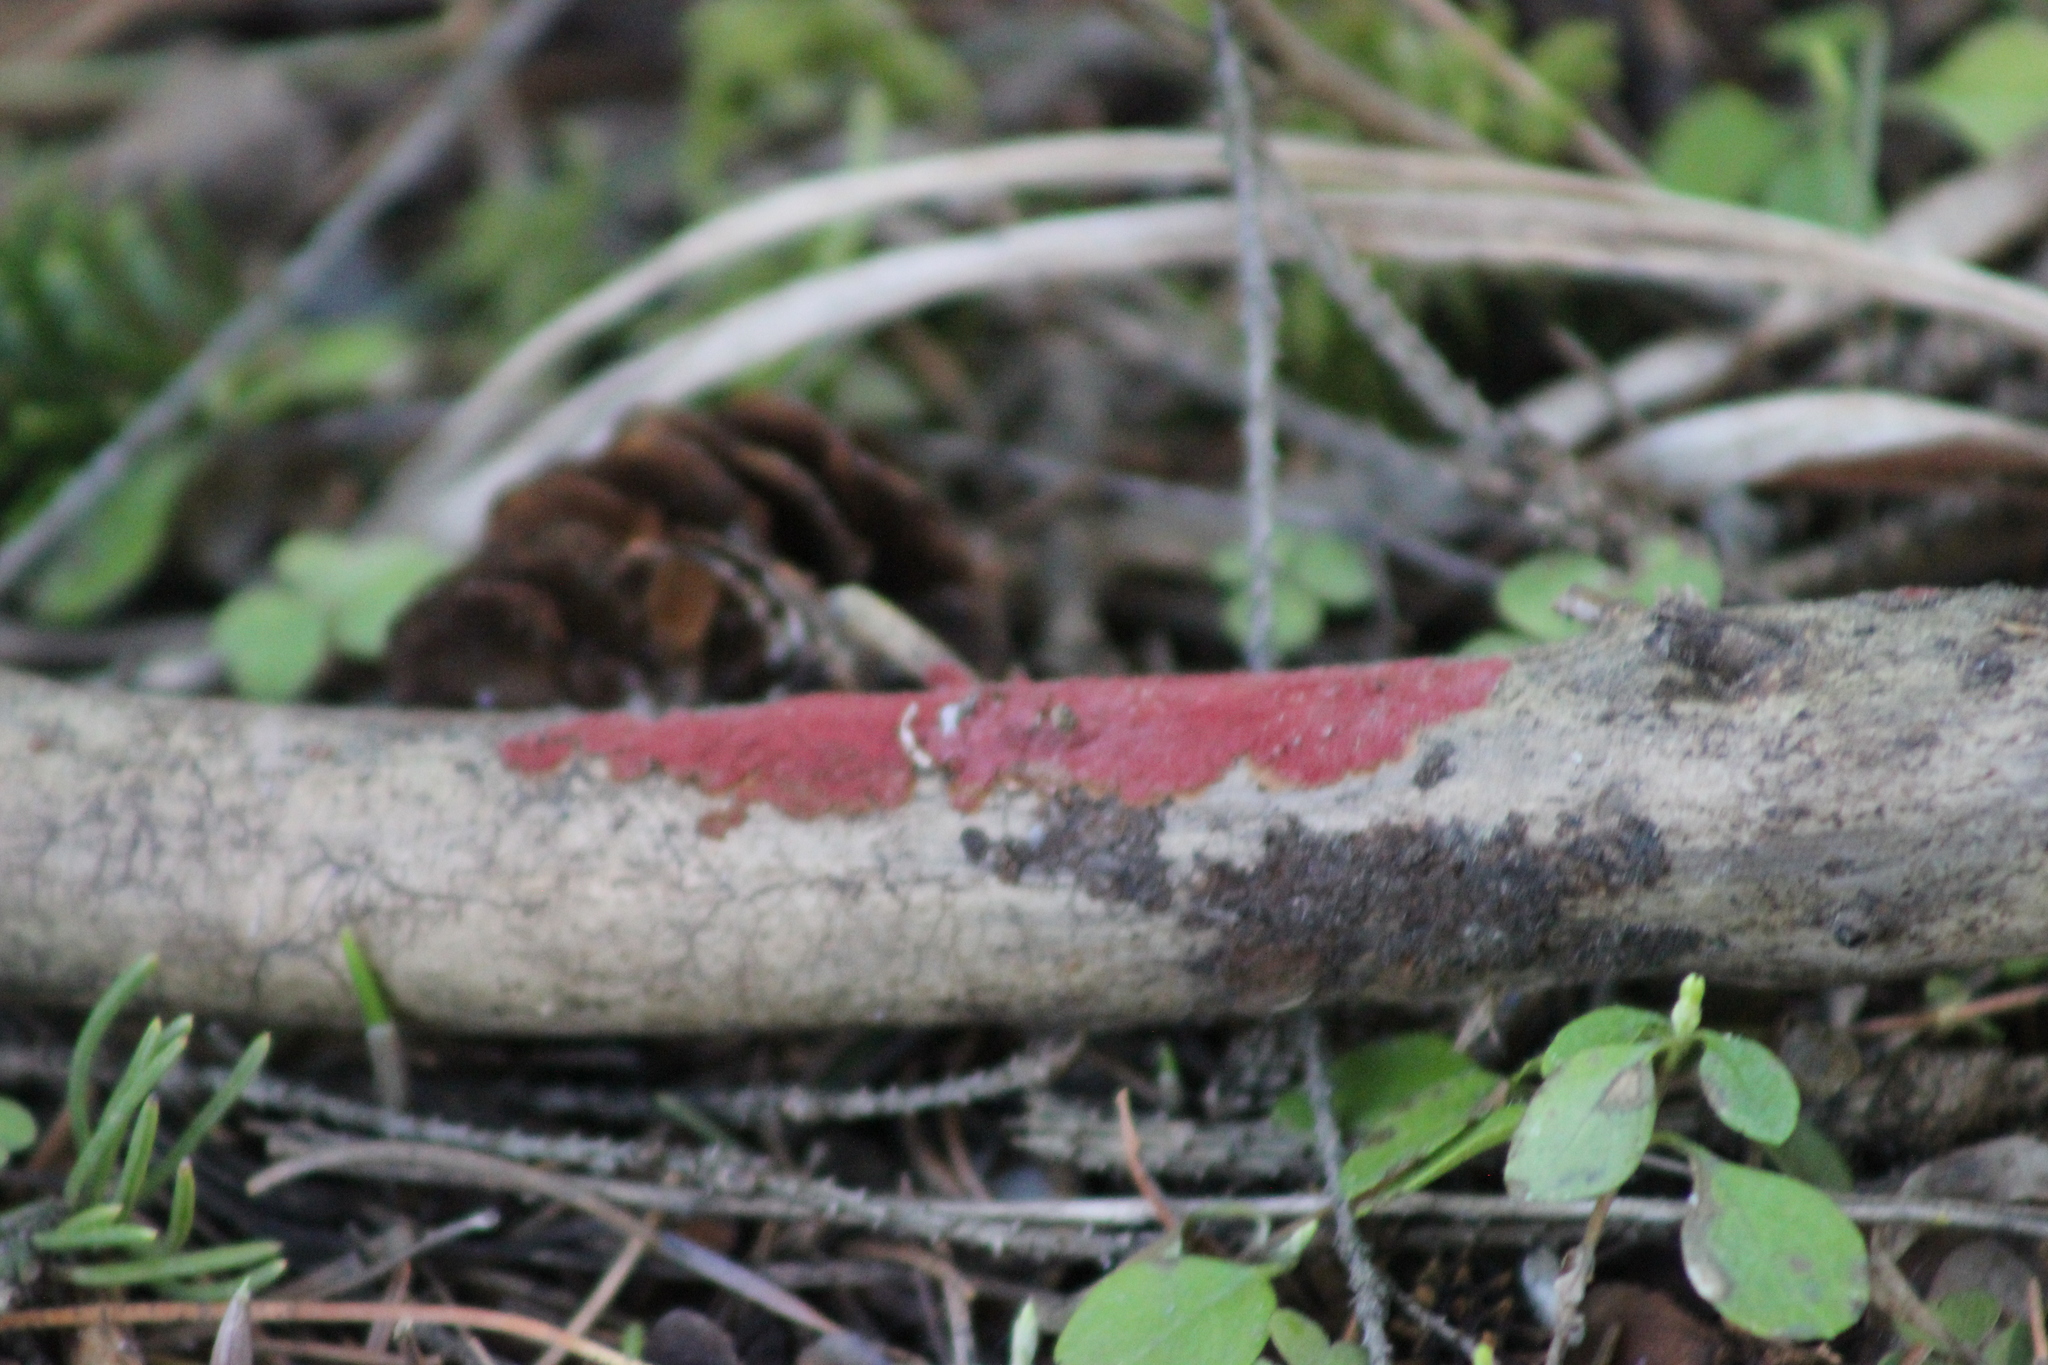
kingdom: Fungi
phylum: Basidiomycota
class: Agaricomycetes
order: Hymenochaetales
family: Hymenochaetaceae
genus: Hymenochaete
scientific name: Hymenochaete cruenta
